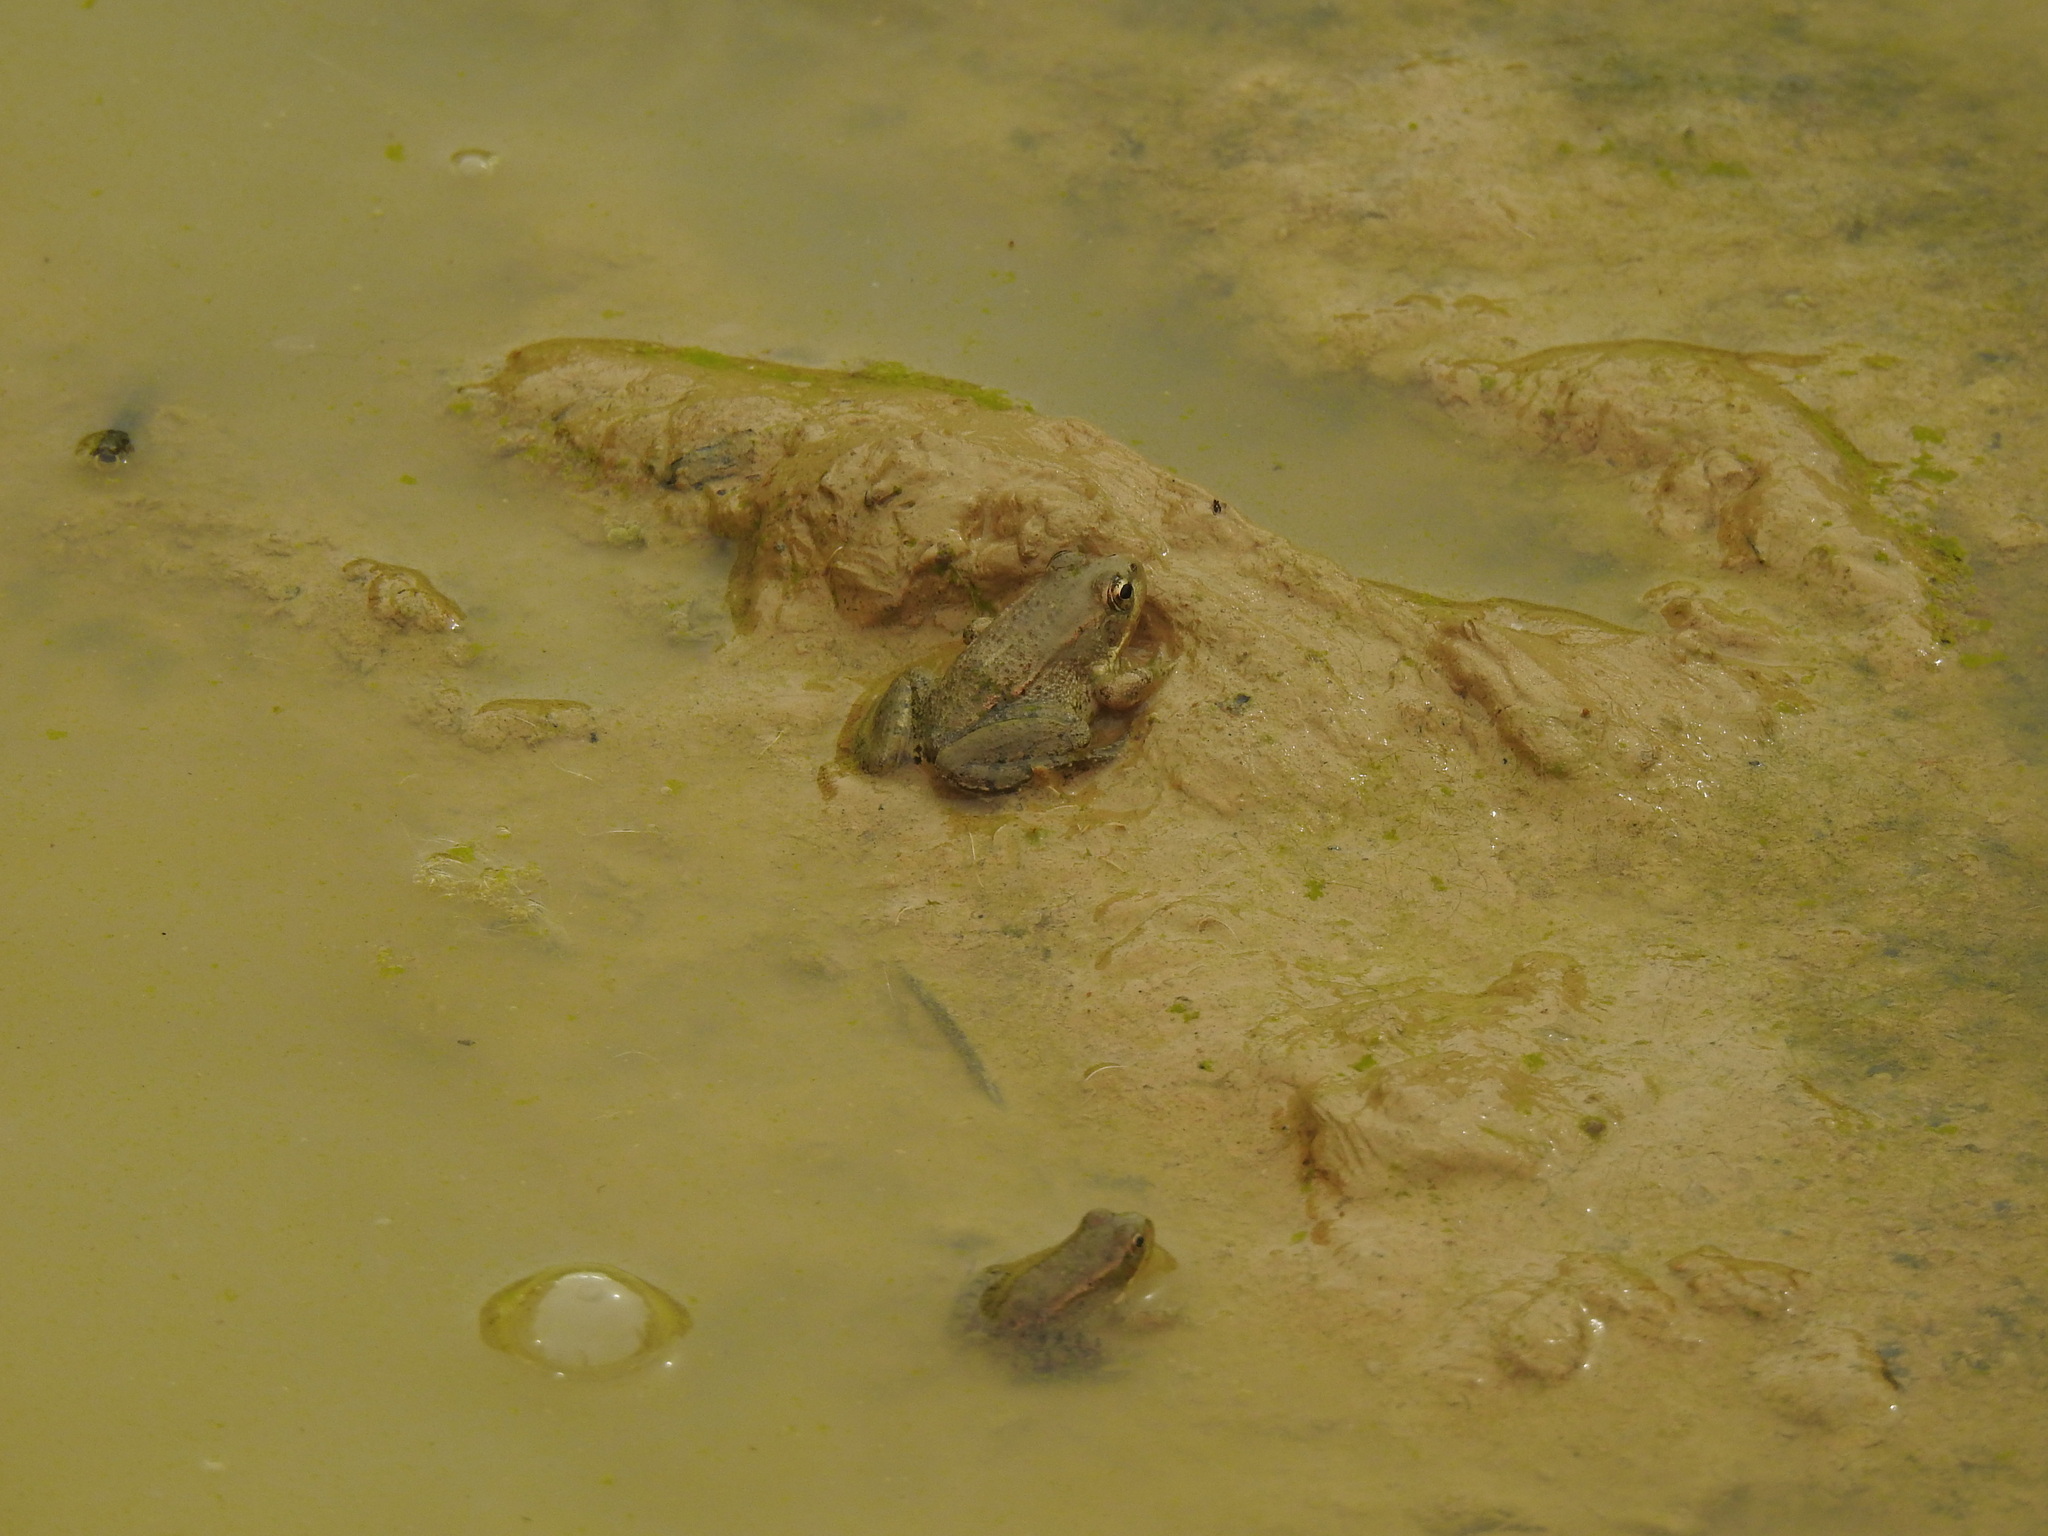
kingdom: Animalia
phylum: Chordata
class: Amphibia
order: Anura
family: Ranidae
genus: Pelophylax
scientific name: Pelophylax perezi
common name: Perez's frog
